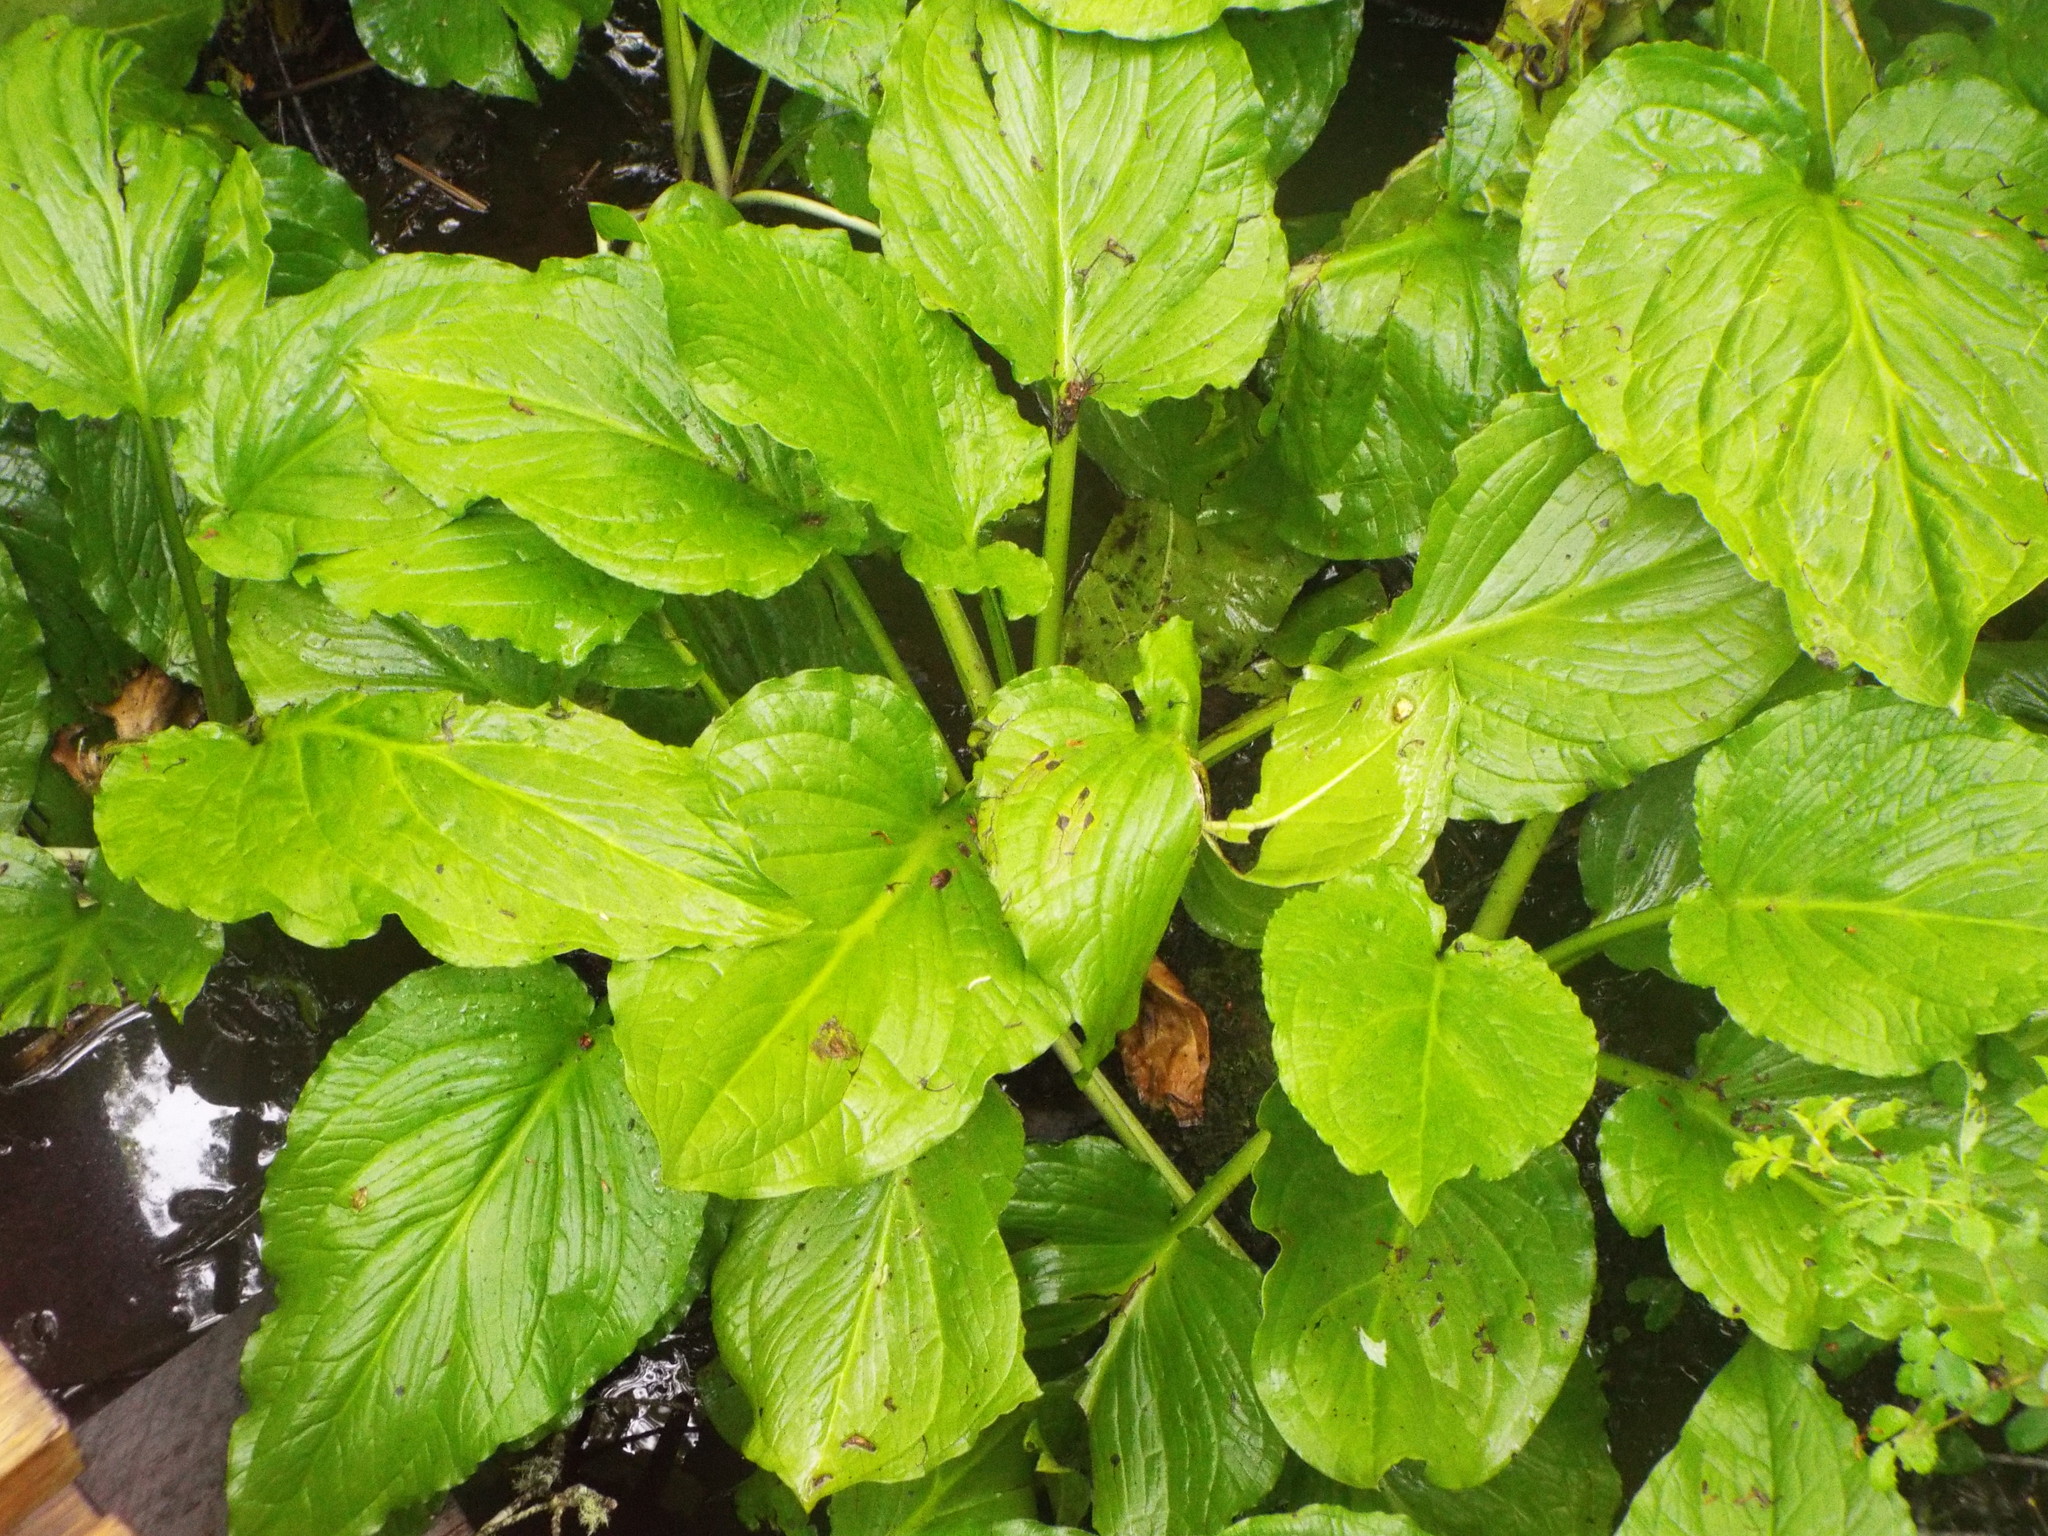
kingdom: Plantae
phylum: Tracheophyta
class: Liliopsida
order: Alismatales
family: Araceae
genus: Symplocarpus
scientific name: Symplocarpus foetidus
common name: Eastern skunk cabbage
